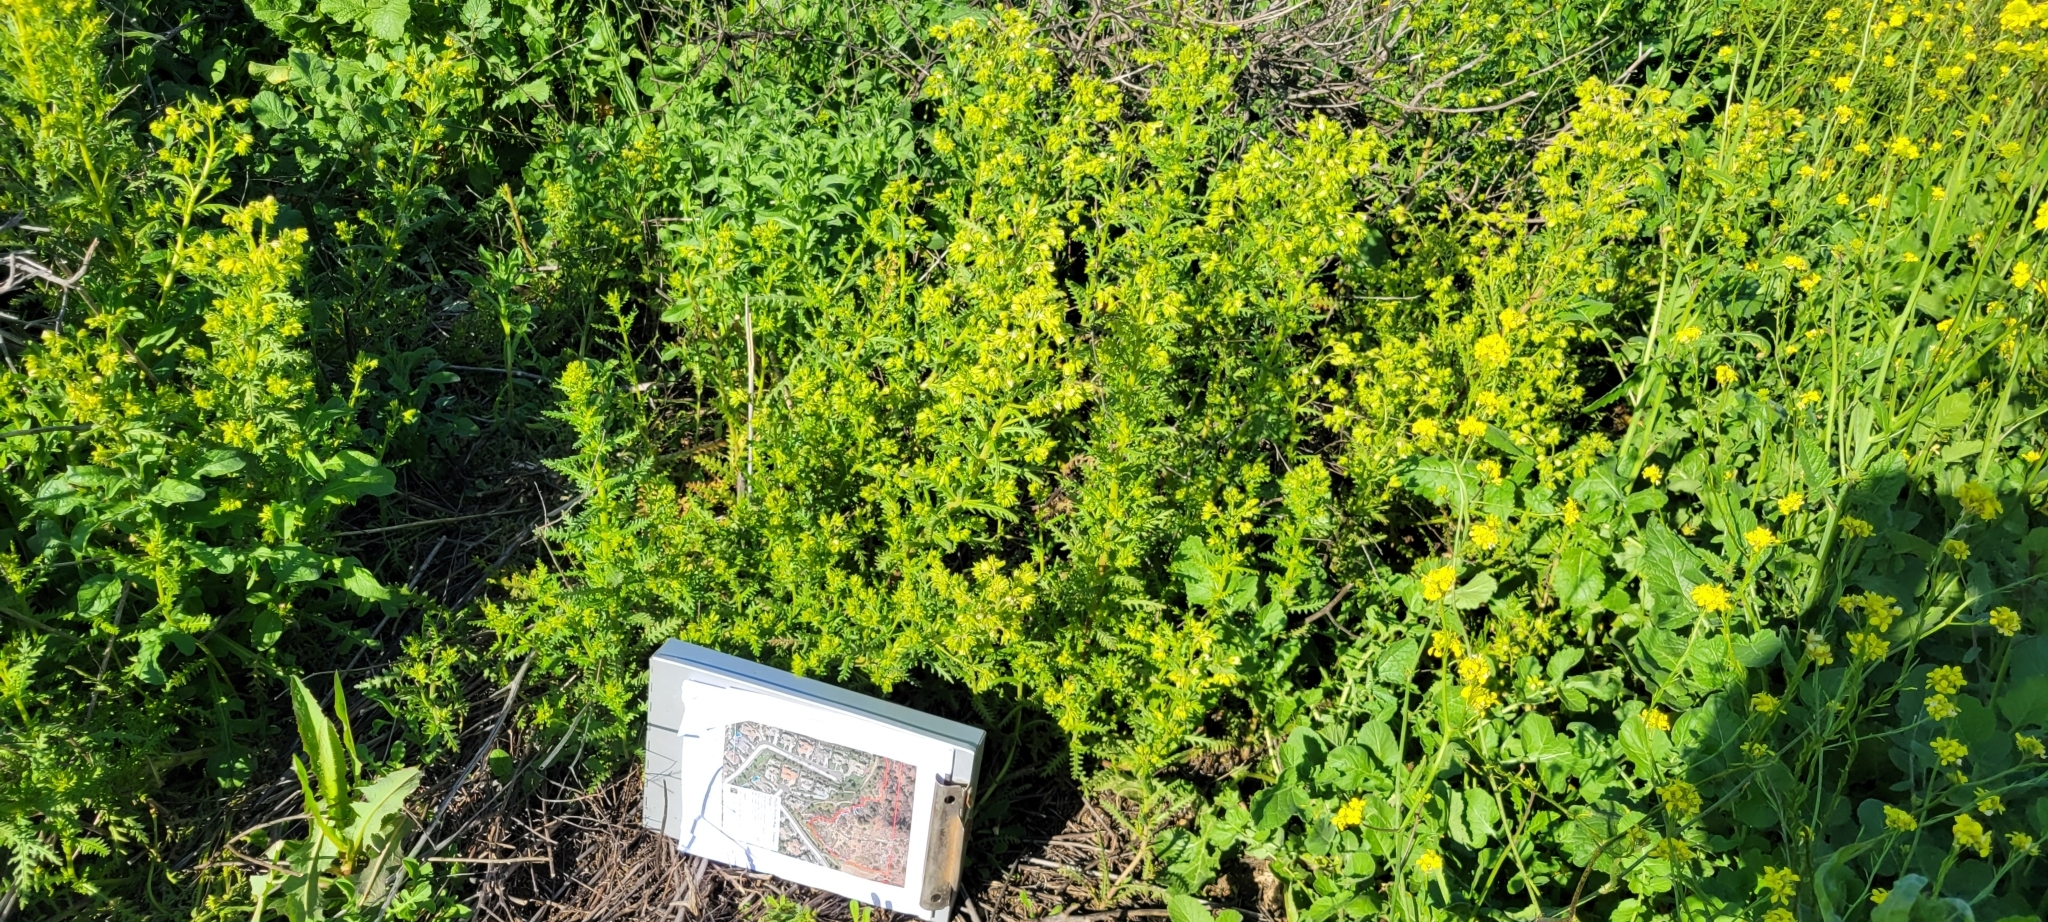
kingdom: Plantae
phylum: Tracheophyta
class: Magnoliopsida
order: Boraginales
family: Hydrophyllaceae
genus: Emmenanthe
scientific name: Emmenanthe penduliflora
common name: Whispering-bells
